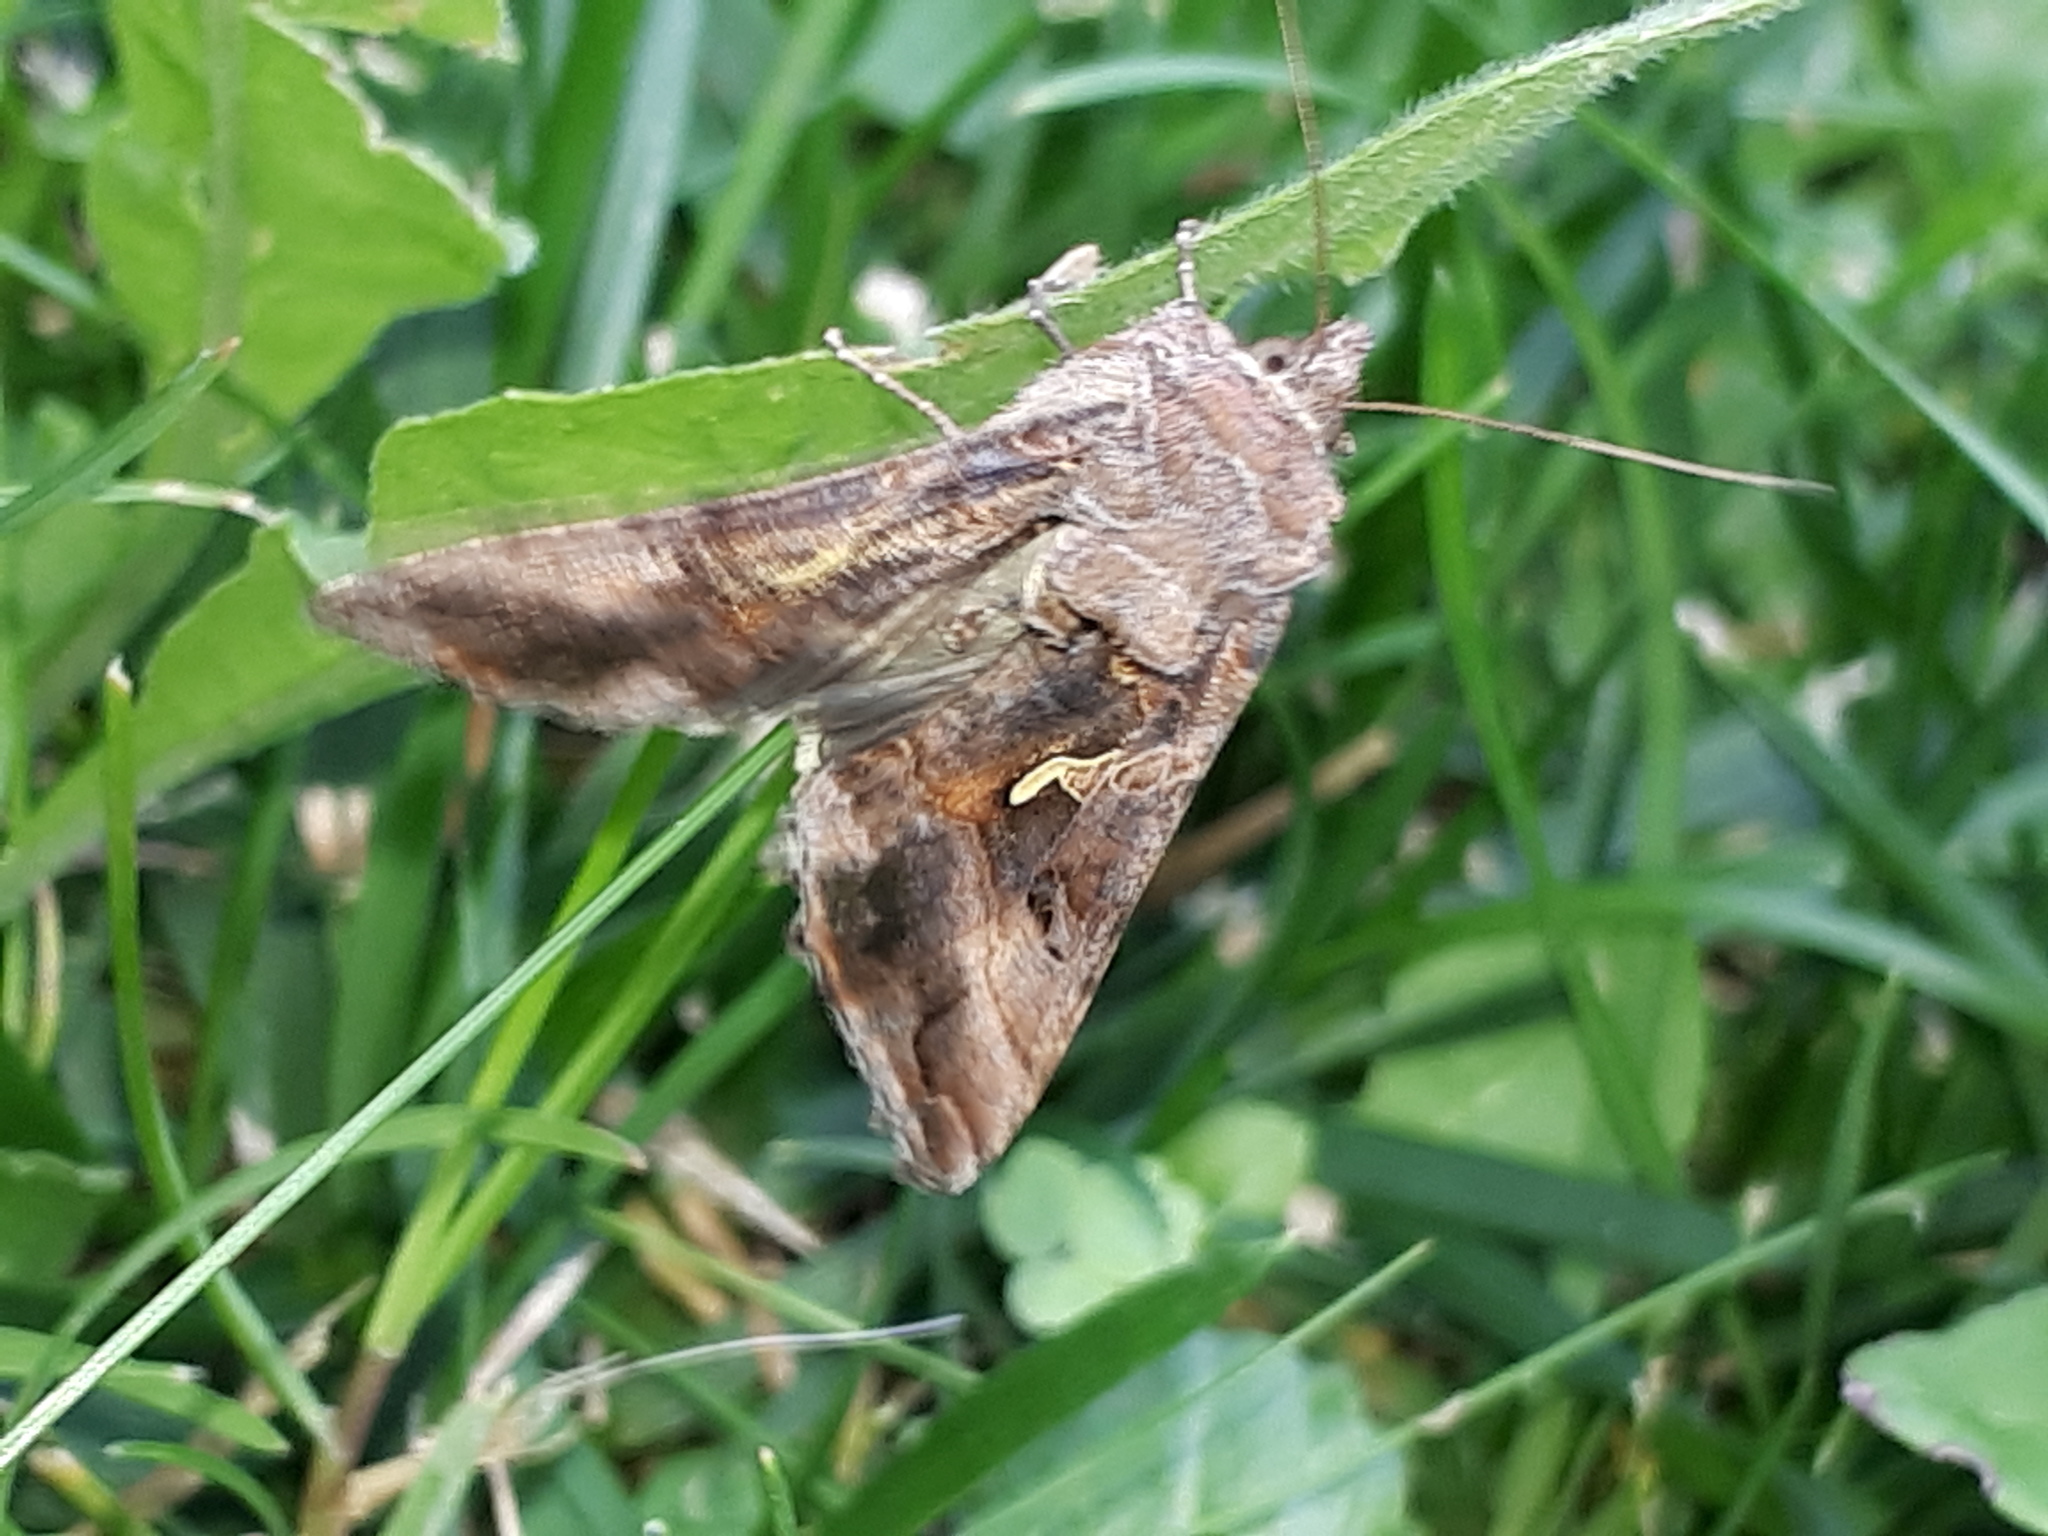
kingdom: Animalia
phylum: Arthropoda
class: Insecta
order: Lepidoptera
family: Noctuidae
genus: Autographa
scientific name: Autographa gamma
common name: Silver y
